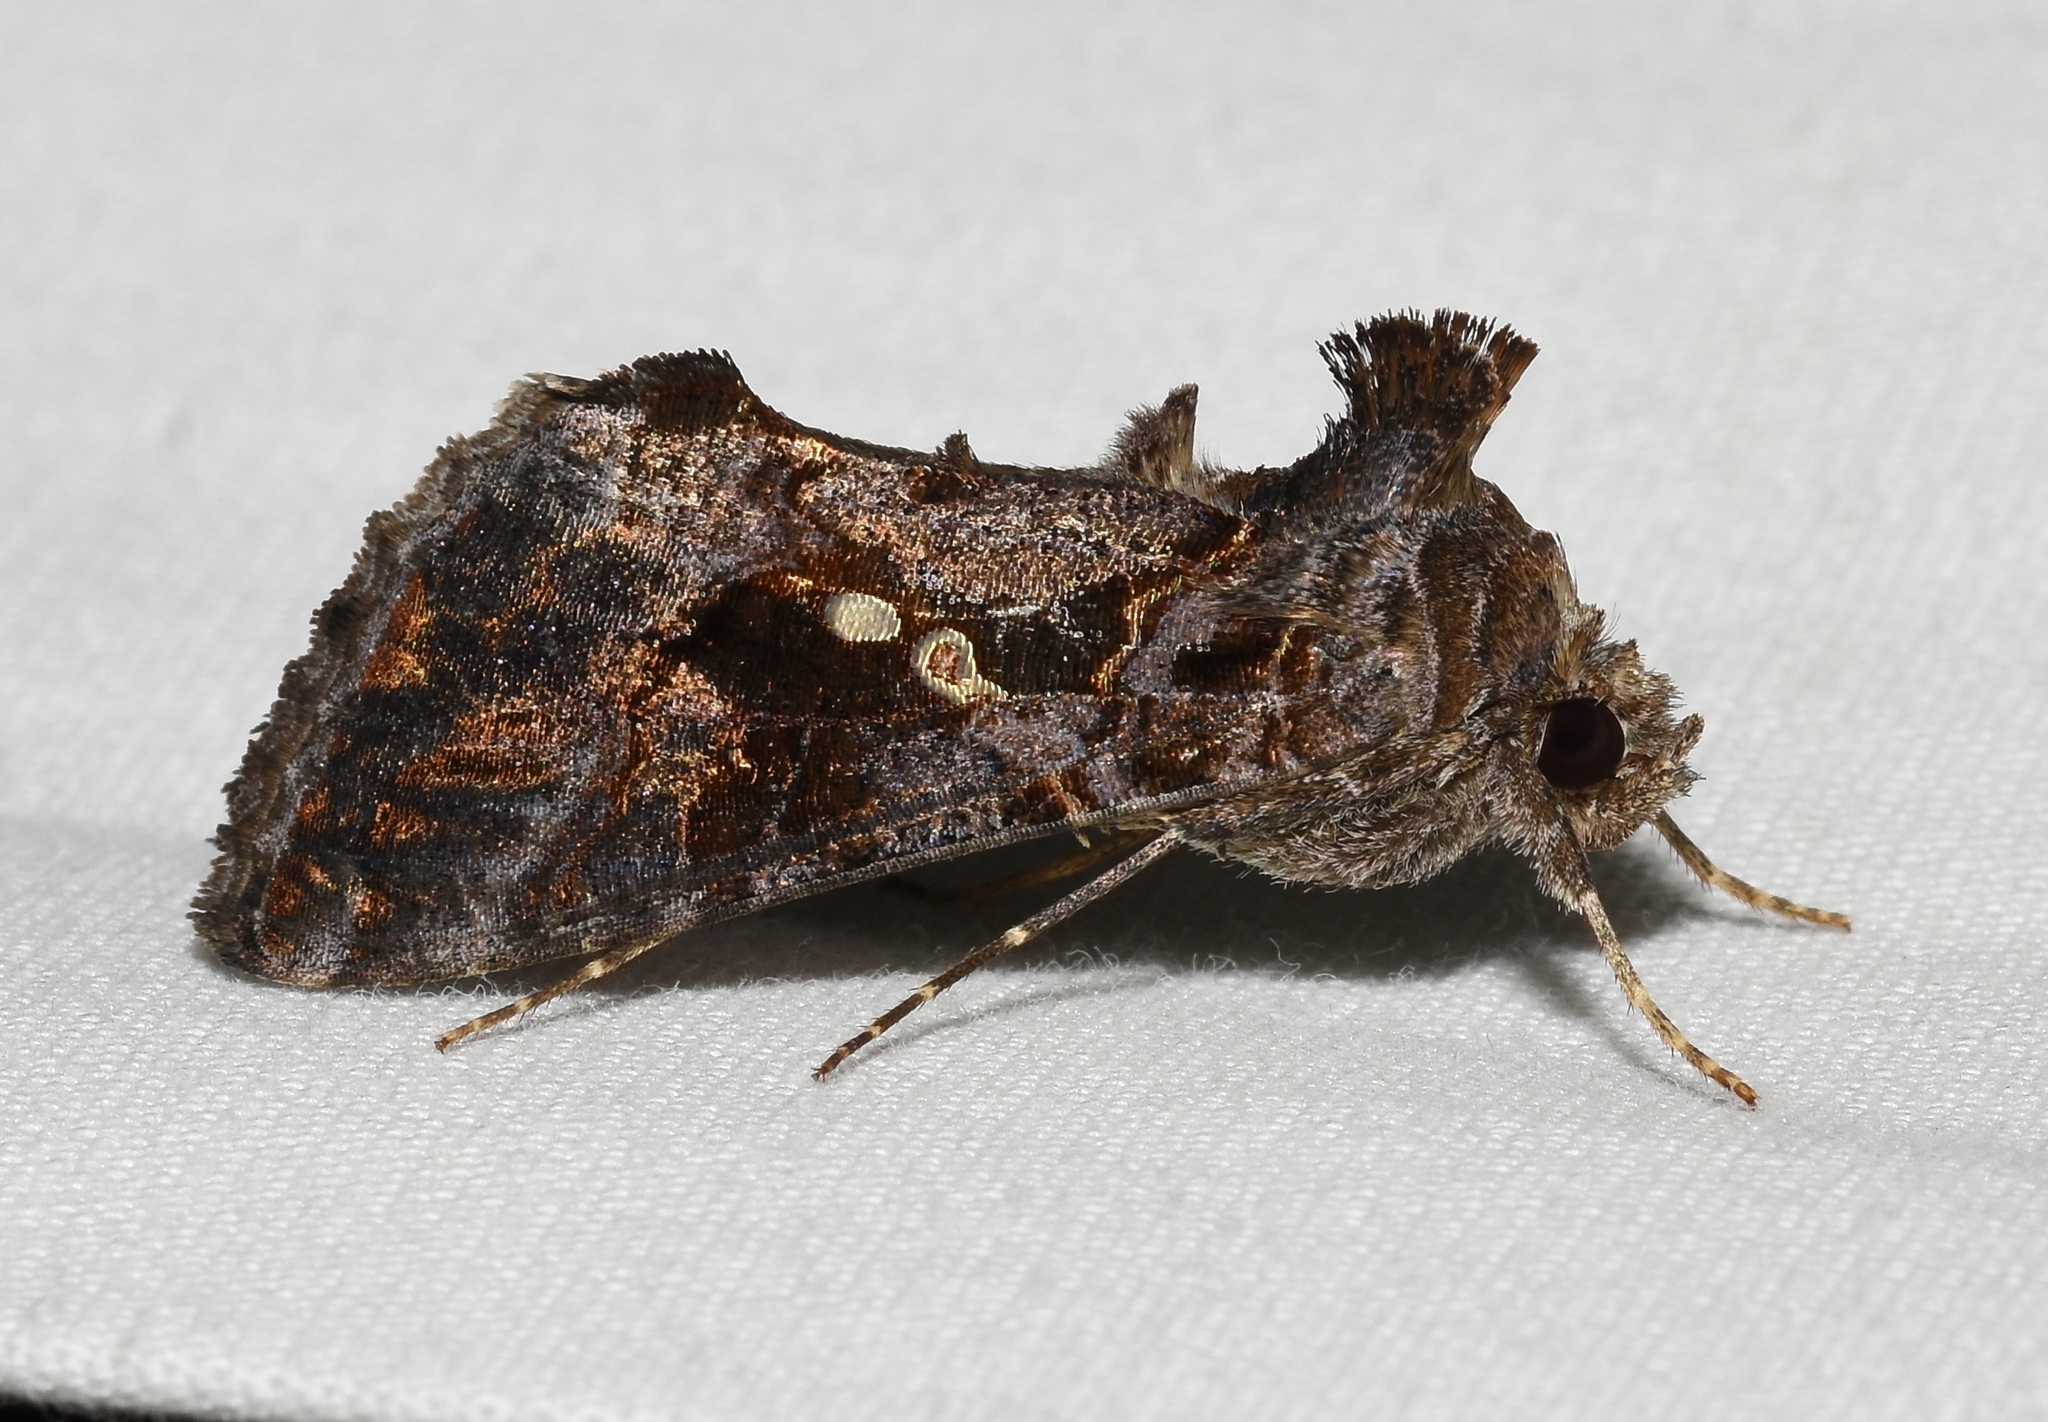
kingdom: Animalia
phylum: Arthropoda
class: Insecta
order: Lepidoptera
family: Noctuidae
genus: Chrysodeixis
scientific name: Chrysodeixis includens
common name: Cutworm moth
